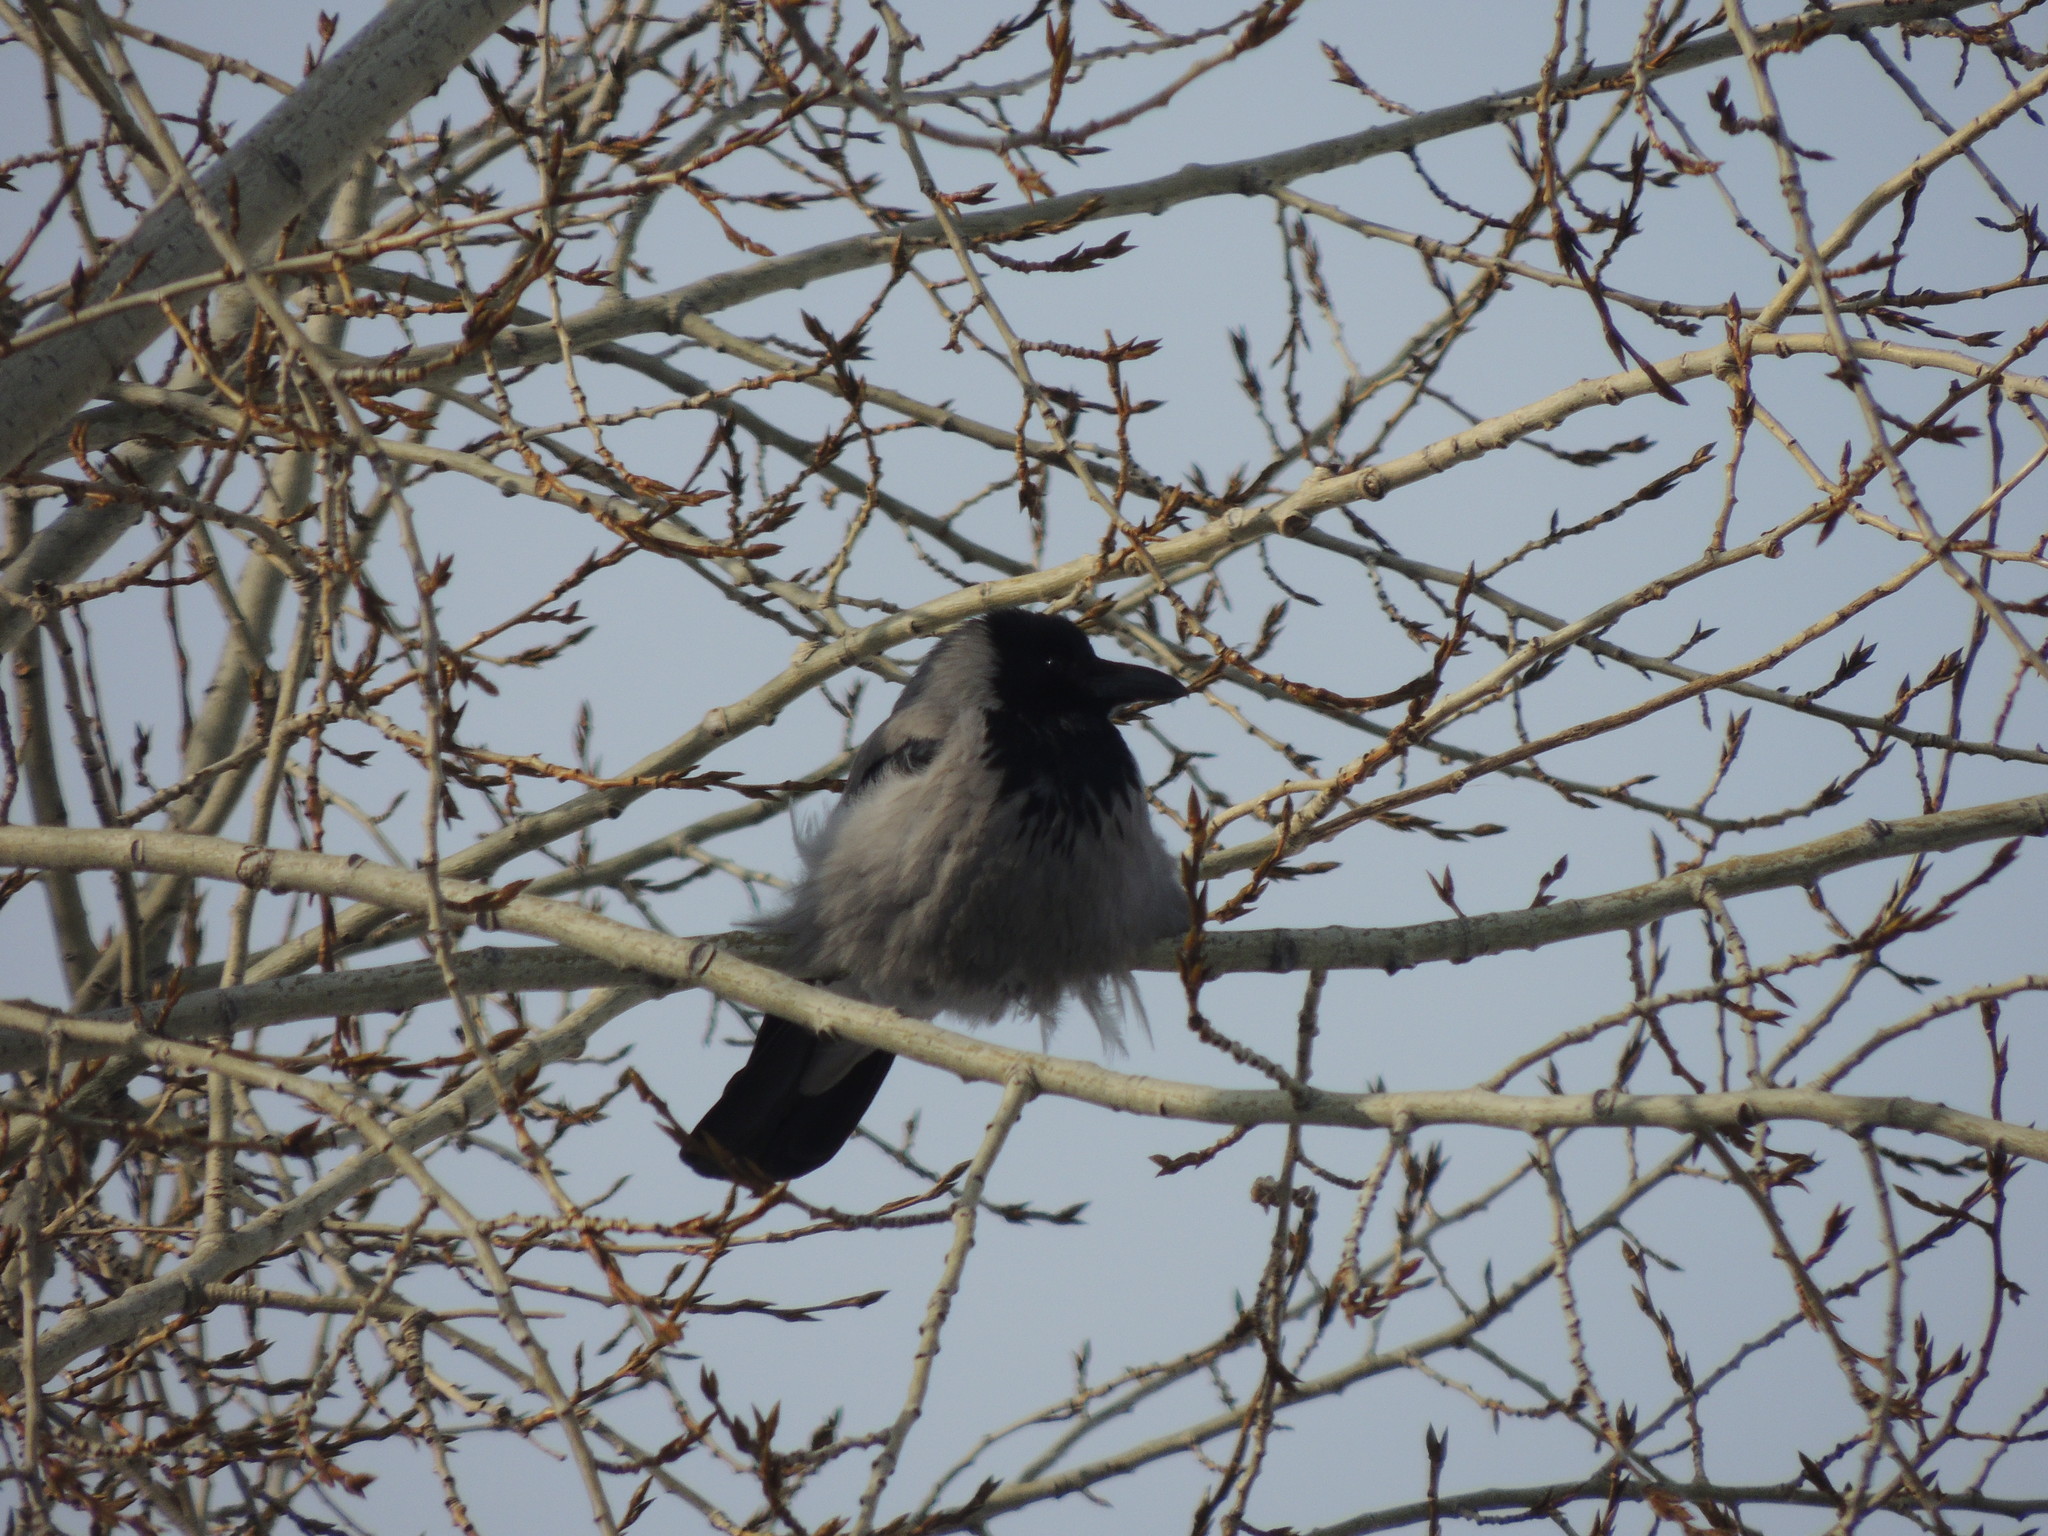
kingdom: Animalia
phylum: Chordata
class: Aves
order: Passeriformes
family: Corvidae
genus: Corvus
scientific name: Corvus cornix
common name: Hooded crow
